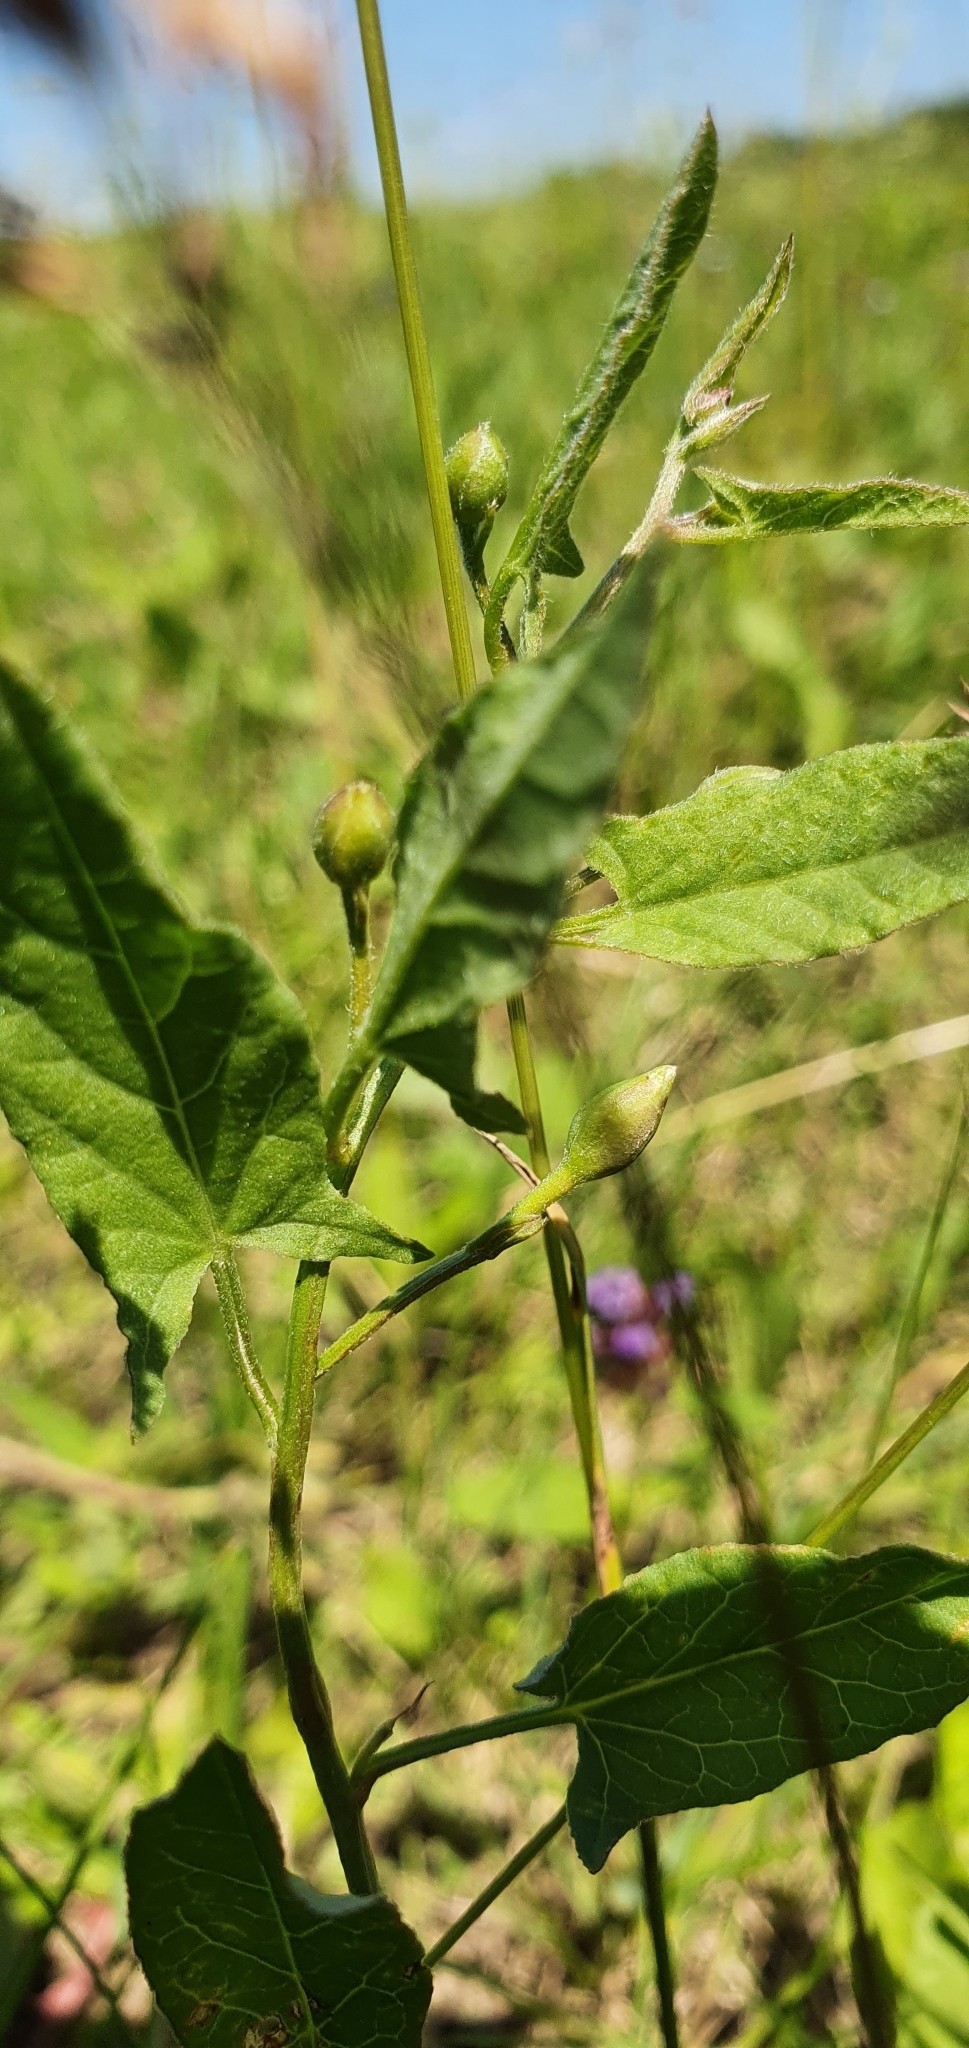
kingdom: Plantae
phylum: Tracheophyta
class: Magnoliopsida
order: Solanales
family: Convolvulaceae
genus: Convolvulus
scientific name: Convolvulus arvensis
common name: Field bindweed
